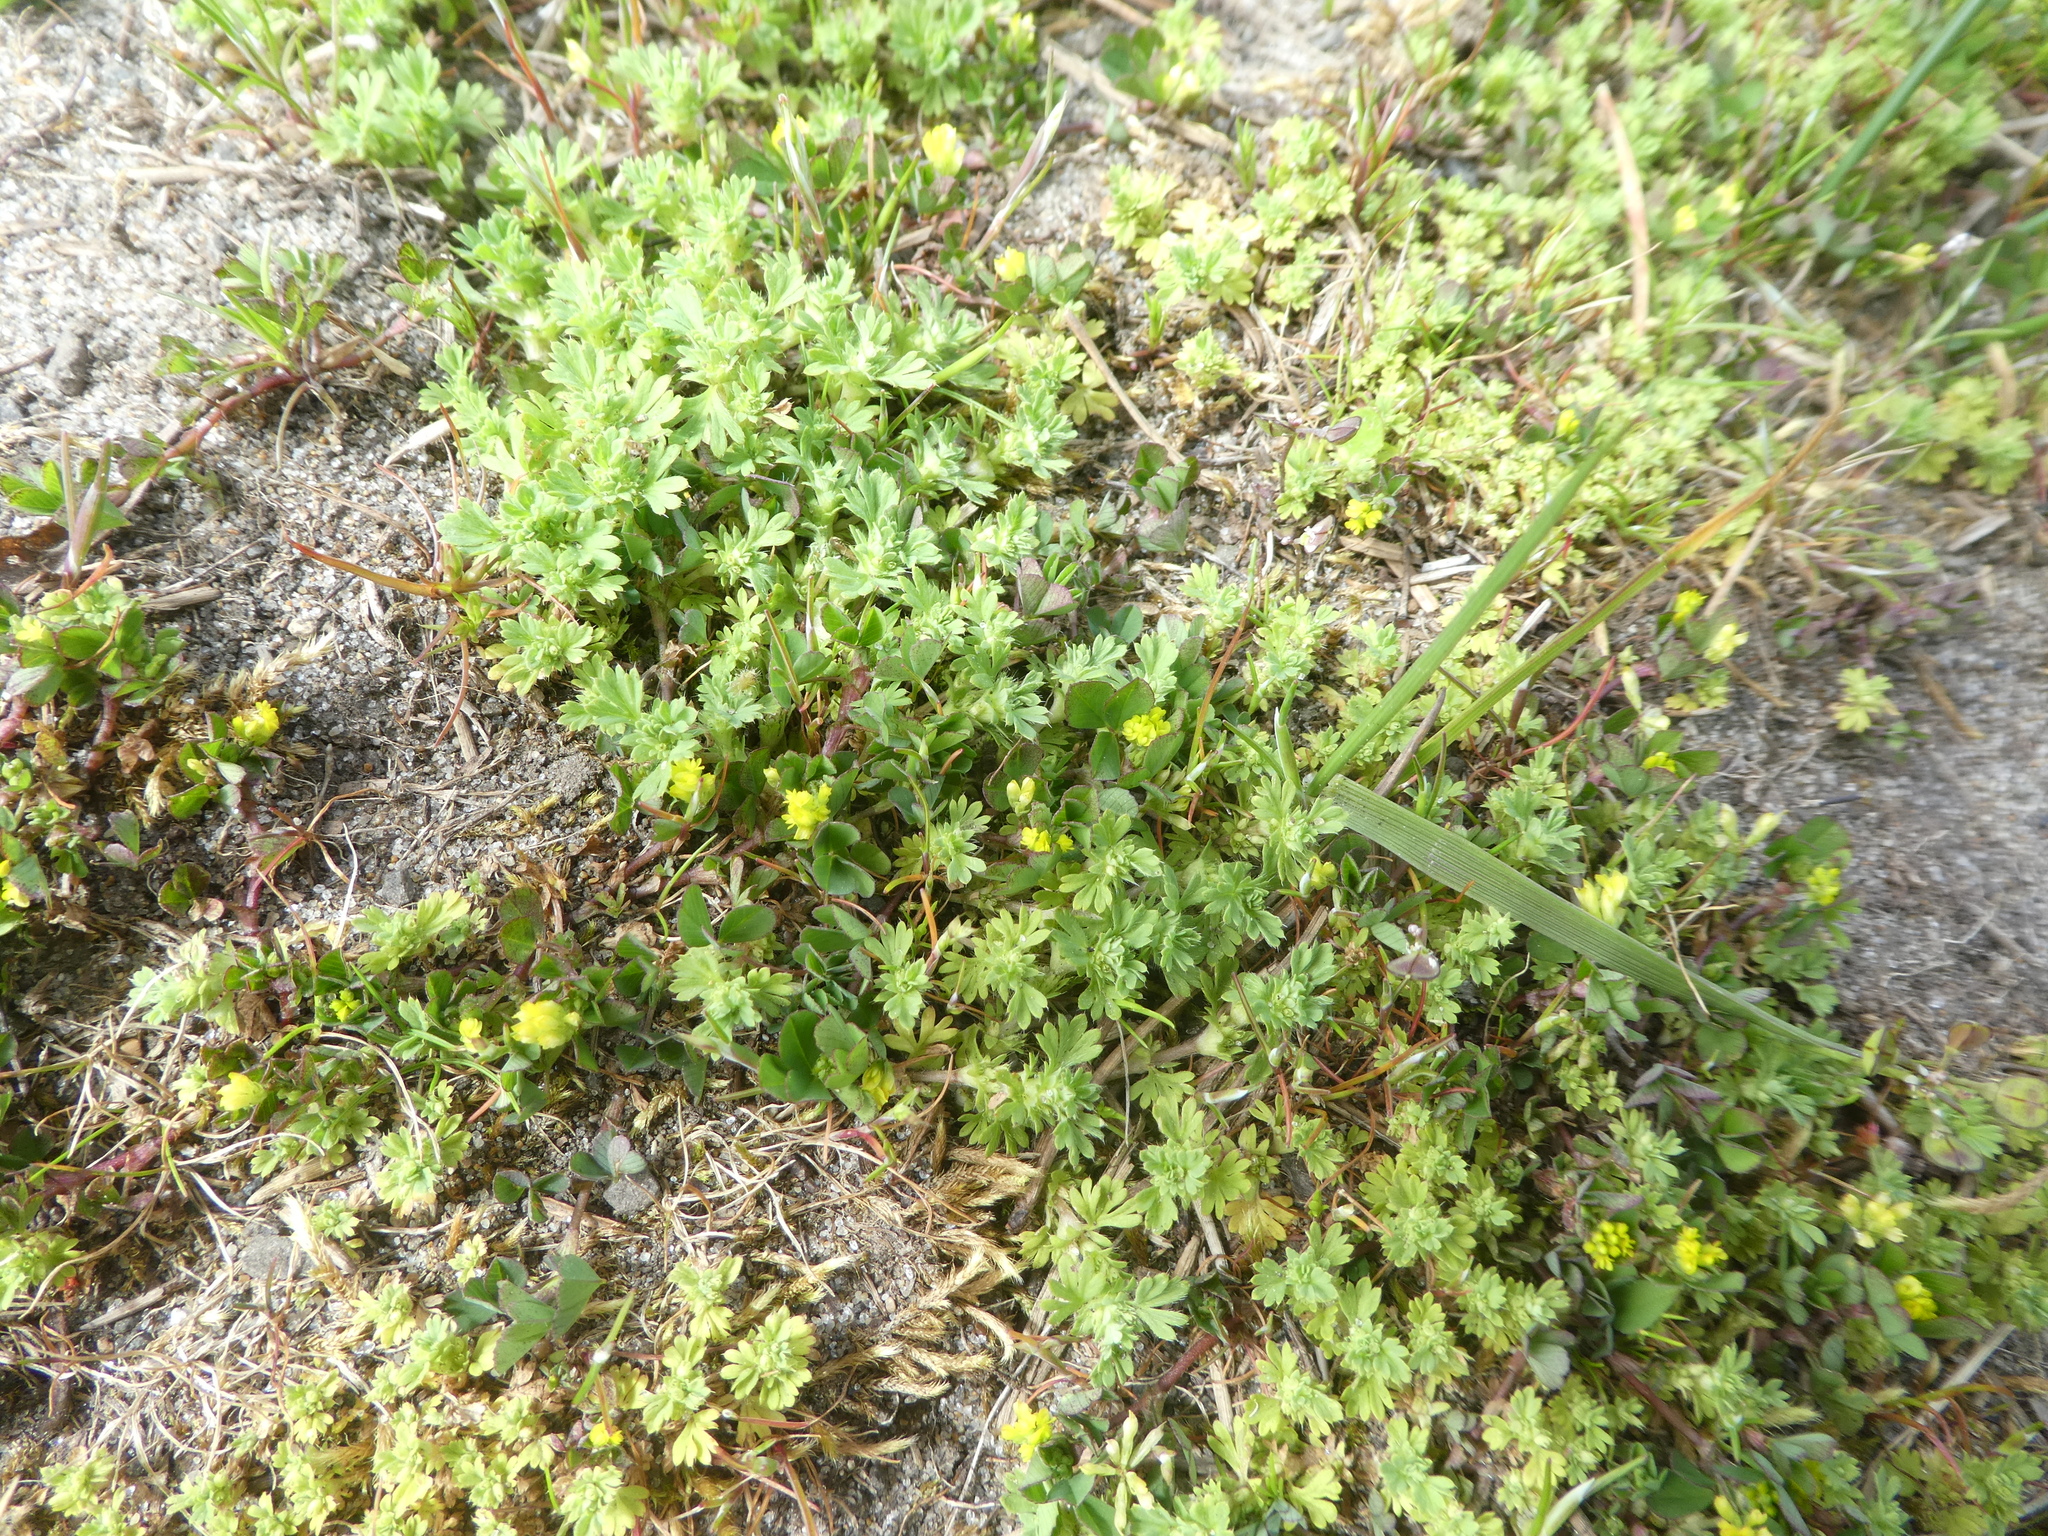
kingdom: Plantae
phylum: Tracheophyta
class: Magnoliopsida
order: Fabales
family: Fabaceae
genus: Trifolium
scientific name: Trifolium dubium
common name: Suckling clover
